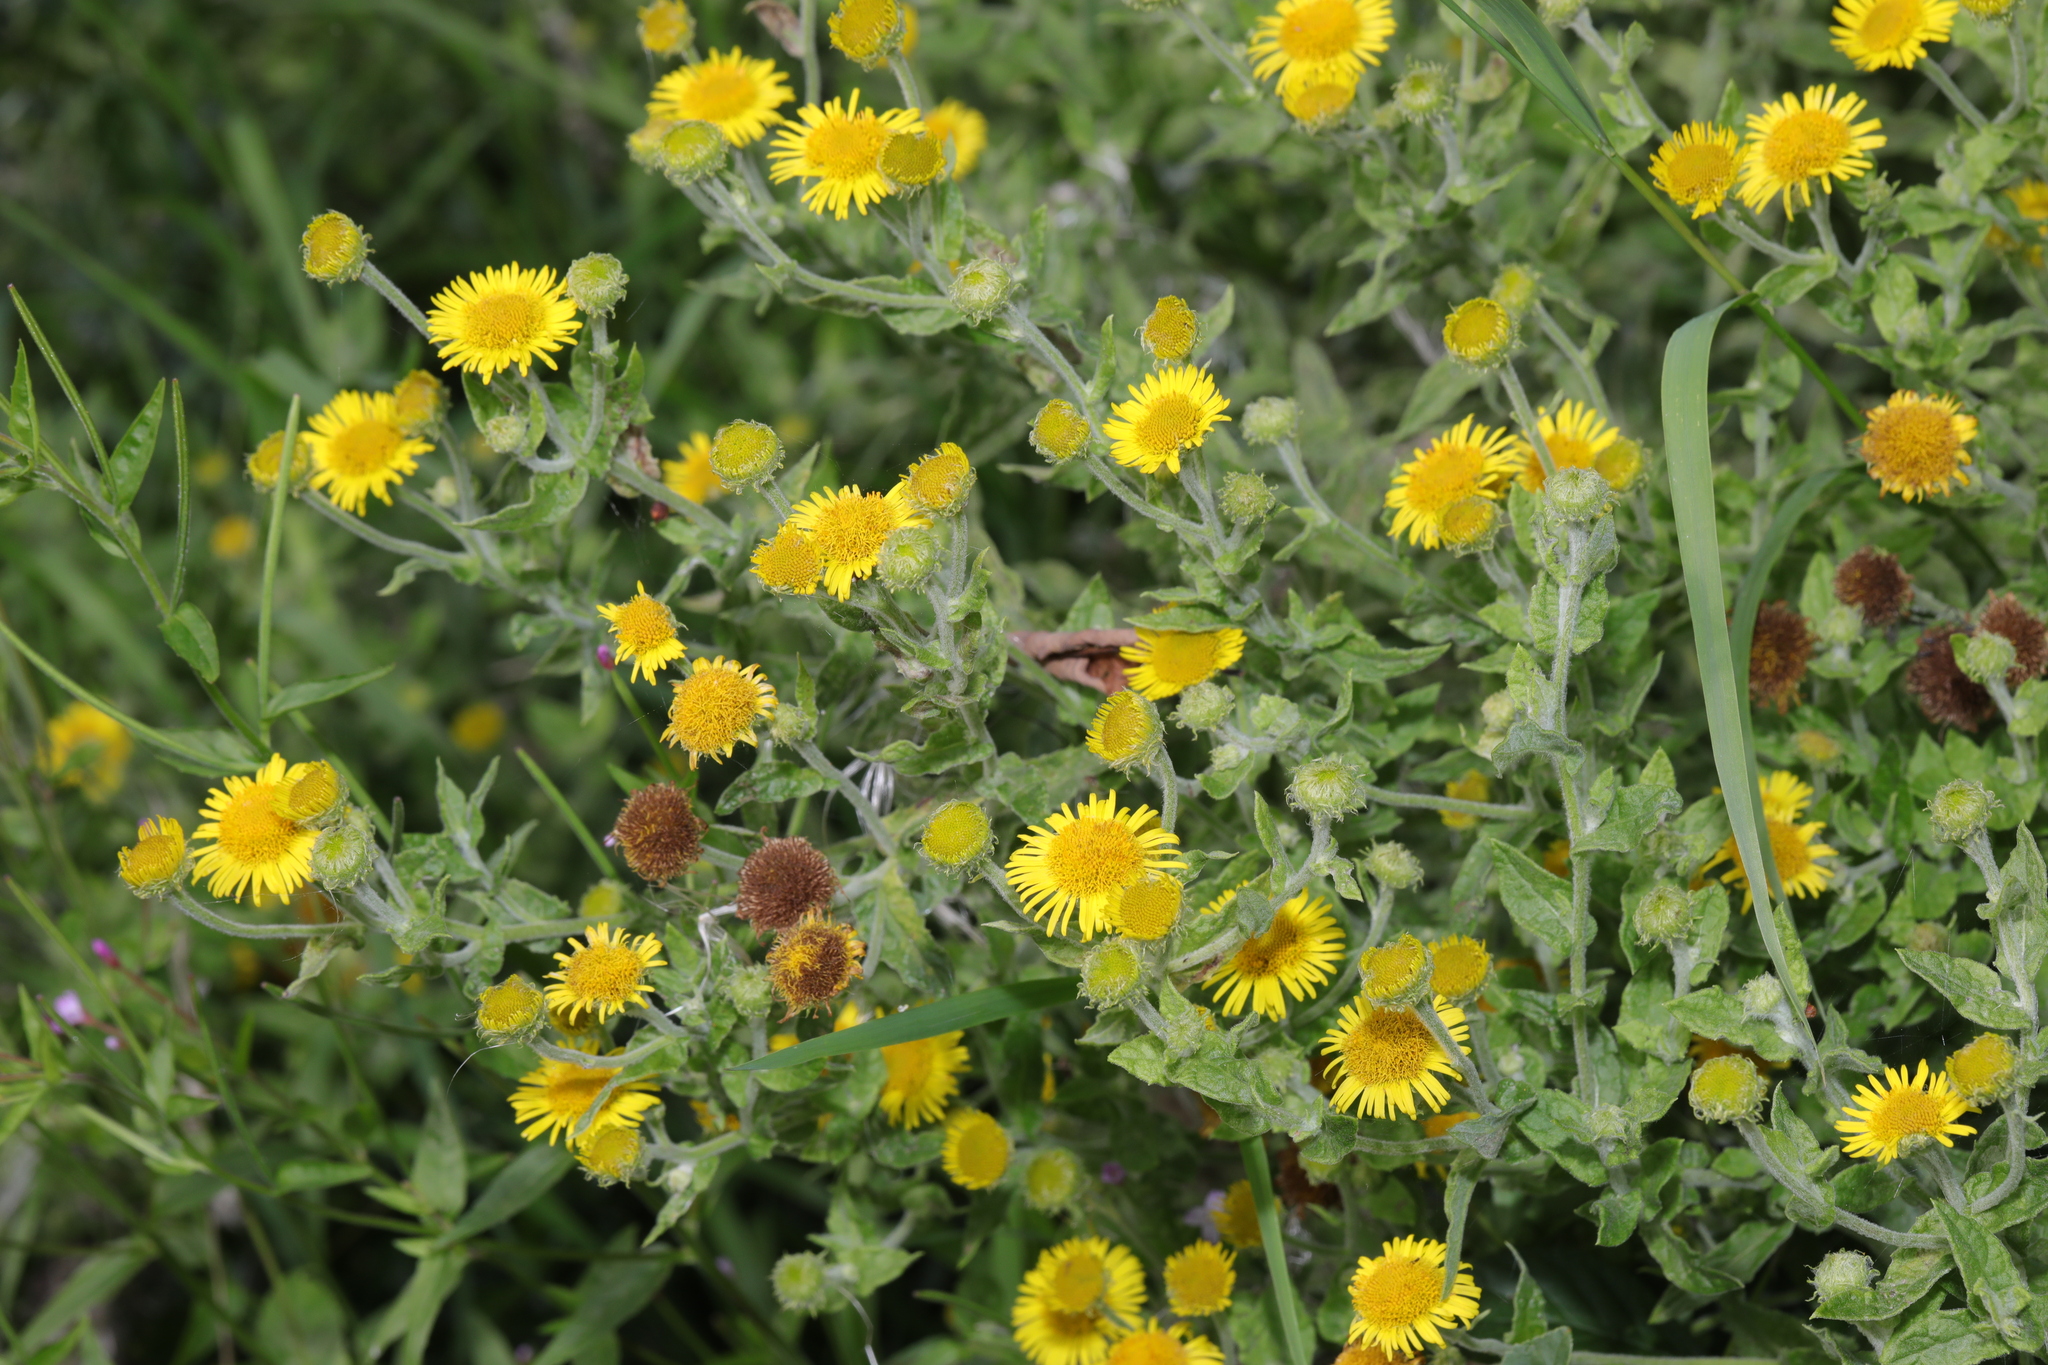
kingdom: Plantae
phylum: Tracheophyta
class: Magnoliopsida
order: Asterales
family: Asteraceae
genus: Pulicaria
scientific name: Pulicaria dysenterica
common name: Common fleabane
